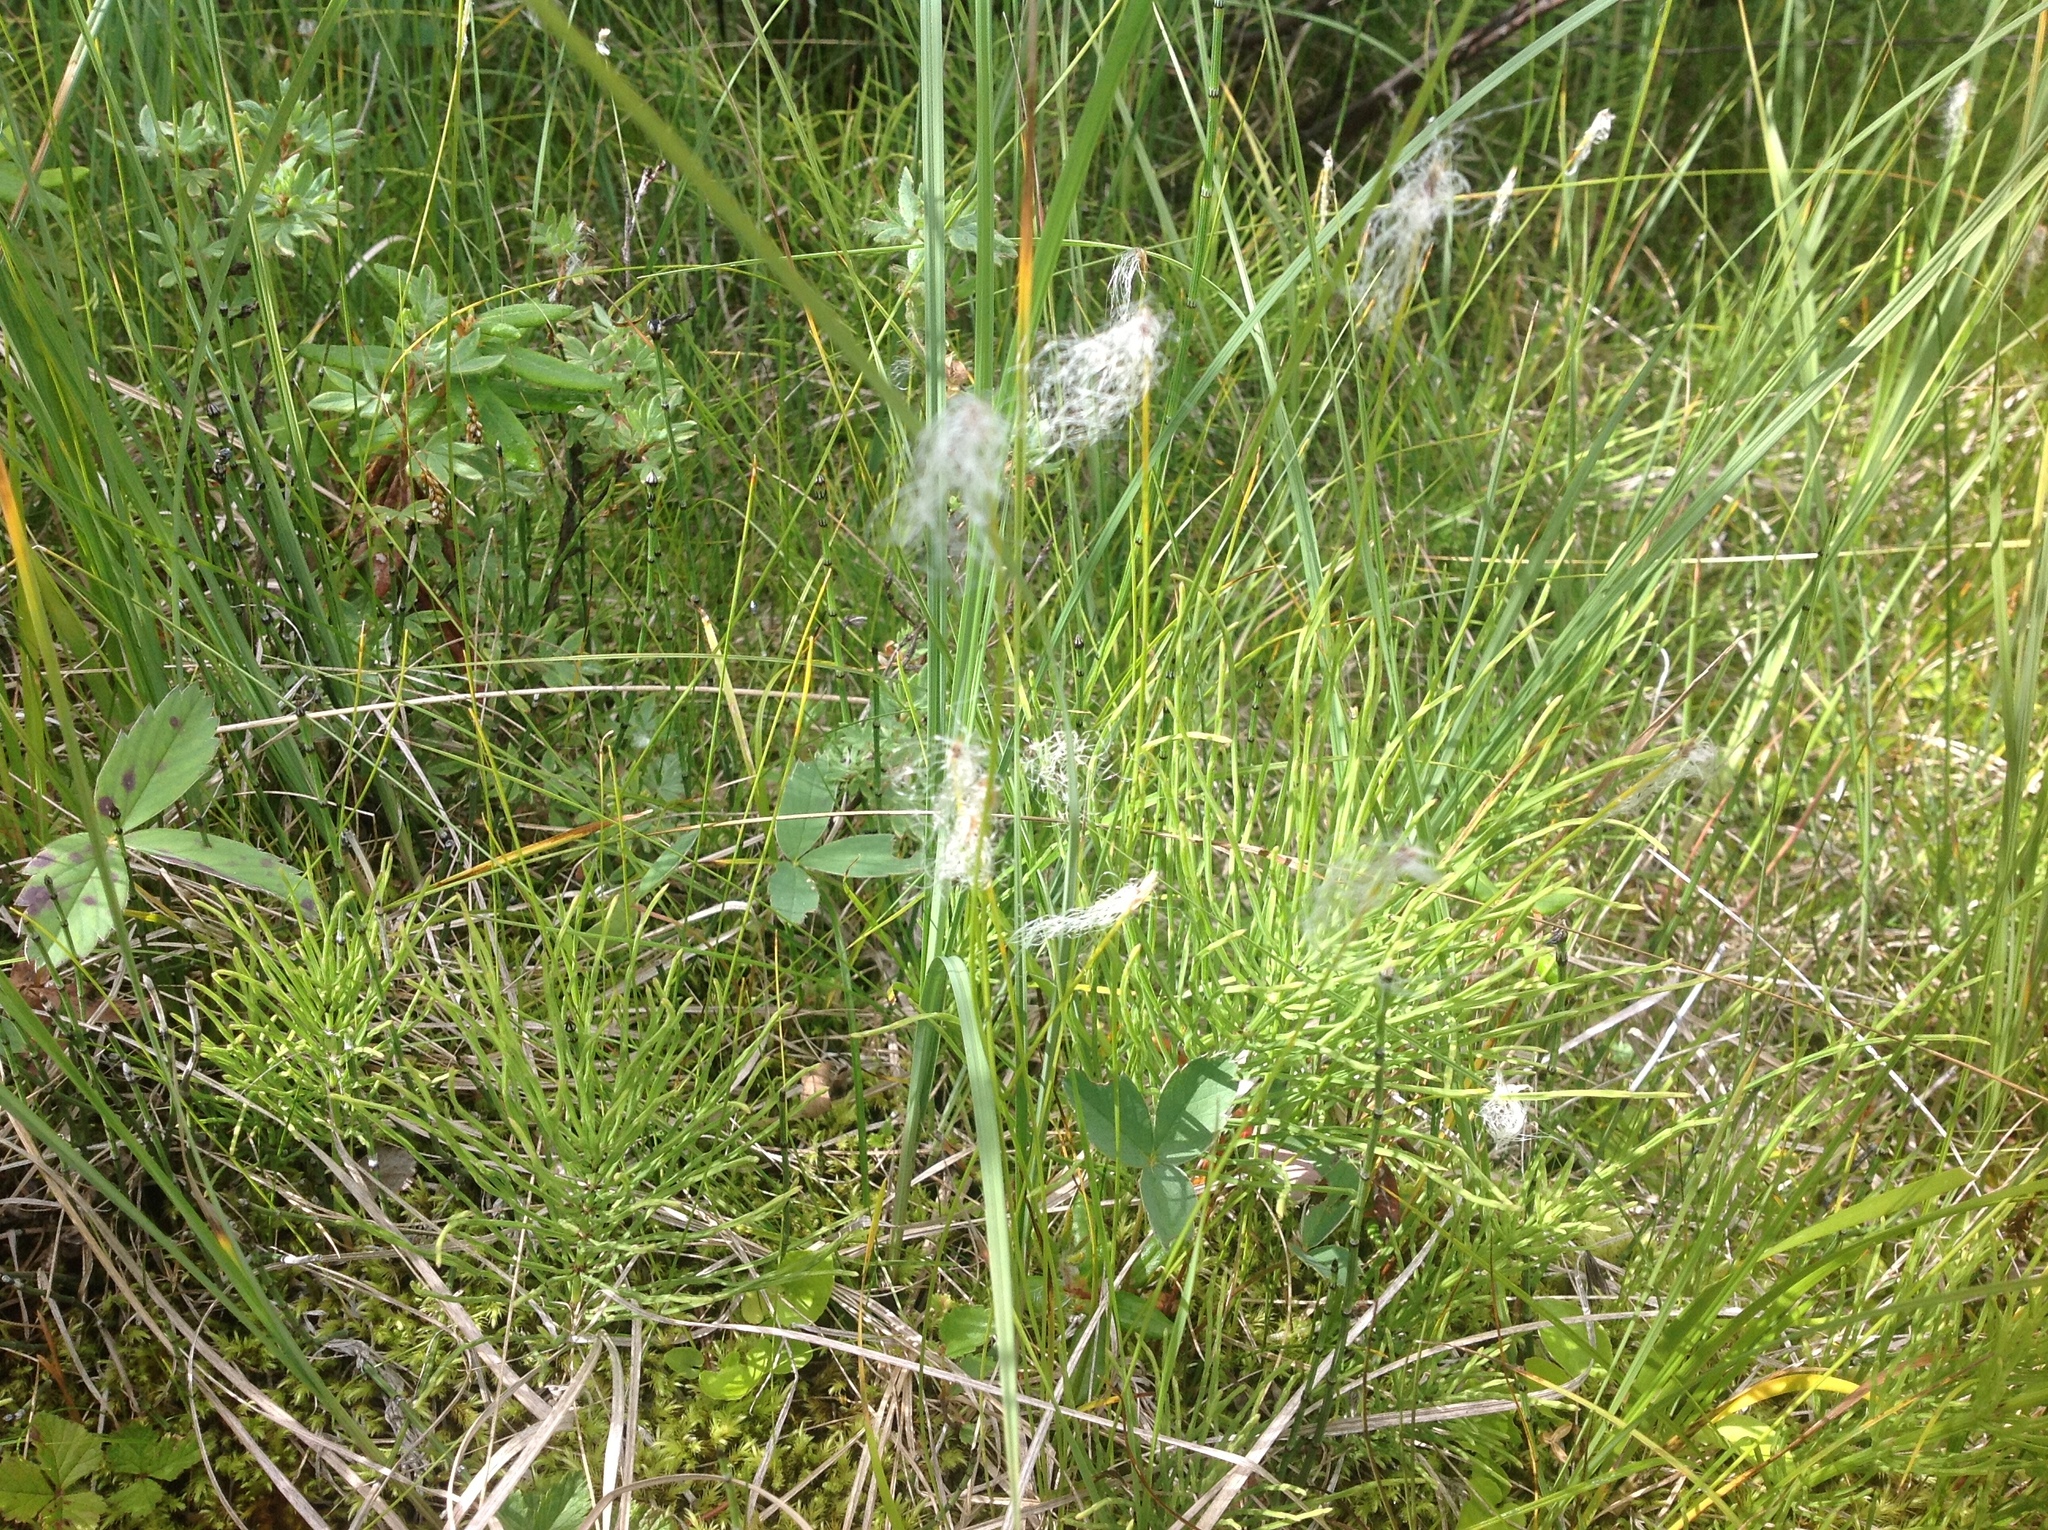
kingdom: Plantae
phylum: Tracheophyta
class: Liliopsida
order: Poales
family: Cyperaceae
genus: Trichophorum
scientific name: Trichophorum alpinum
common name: Alpine bulrush
